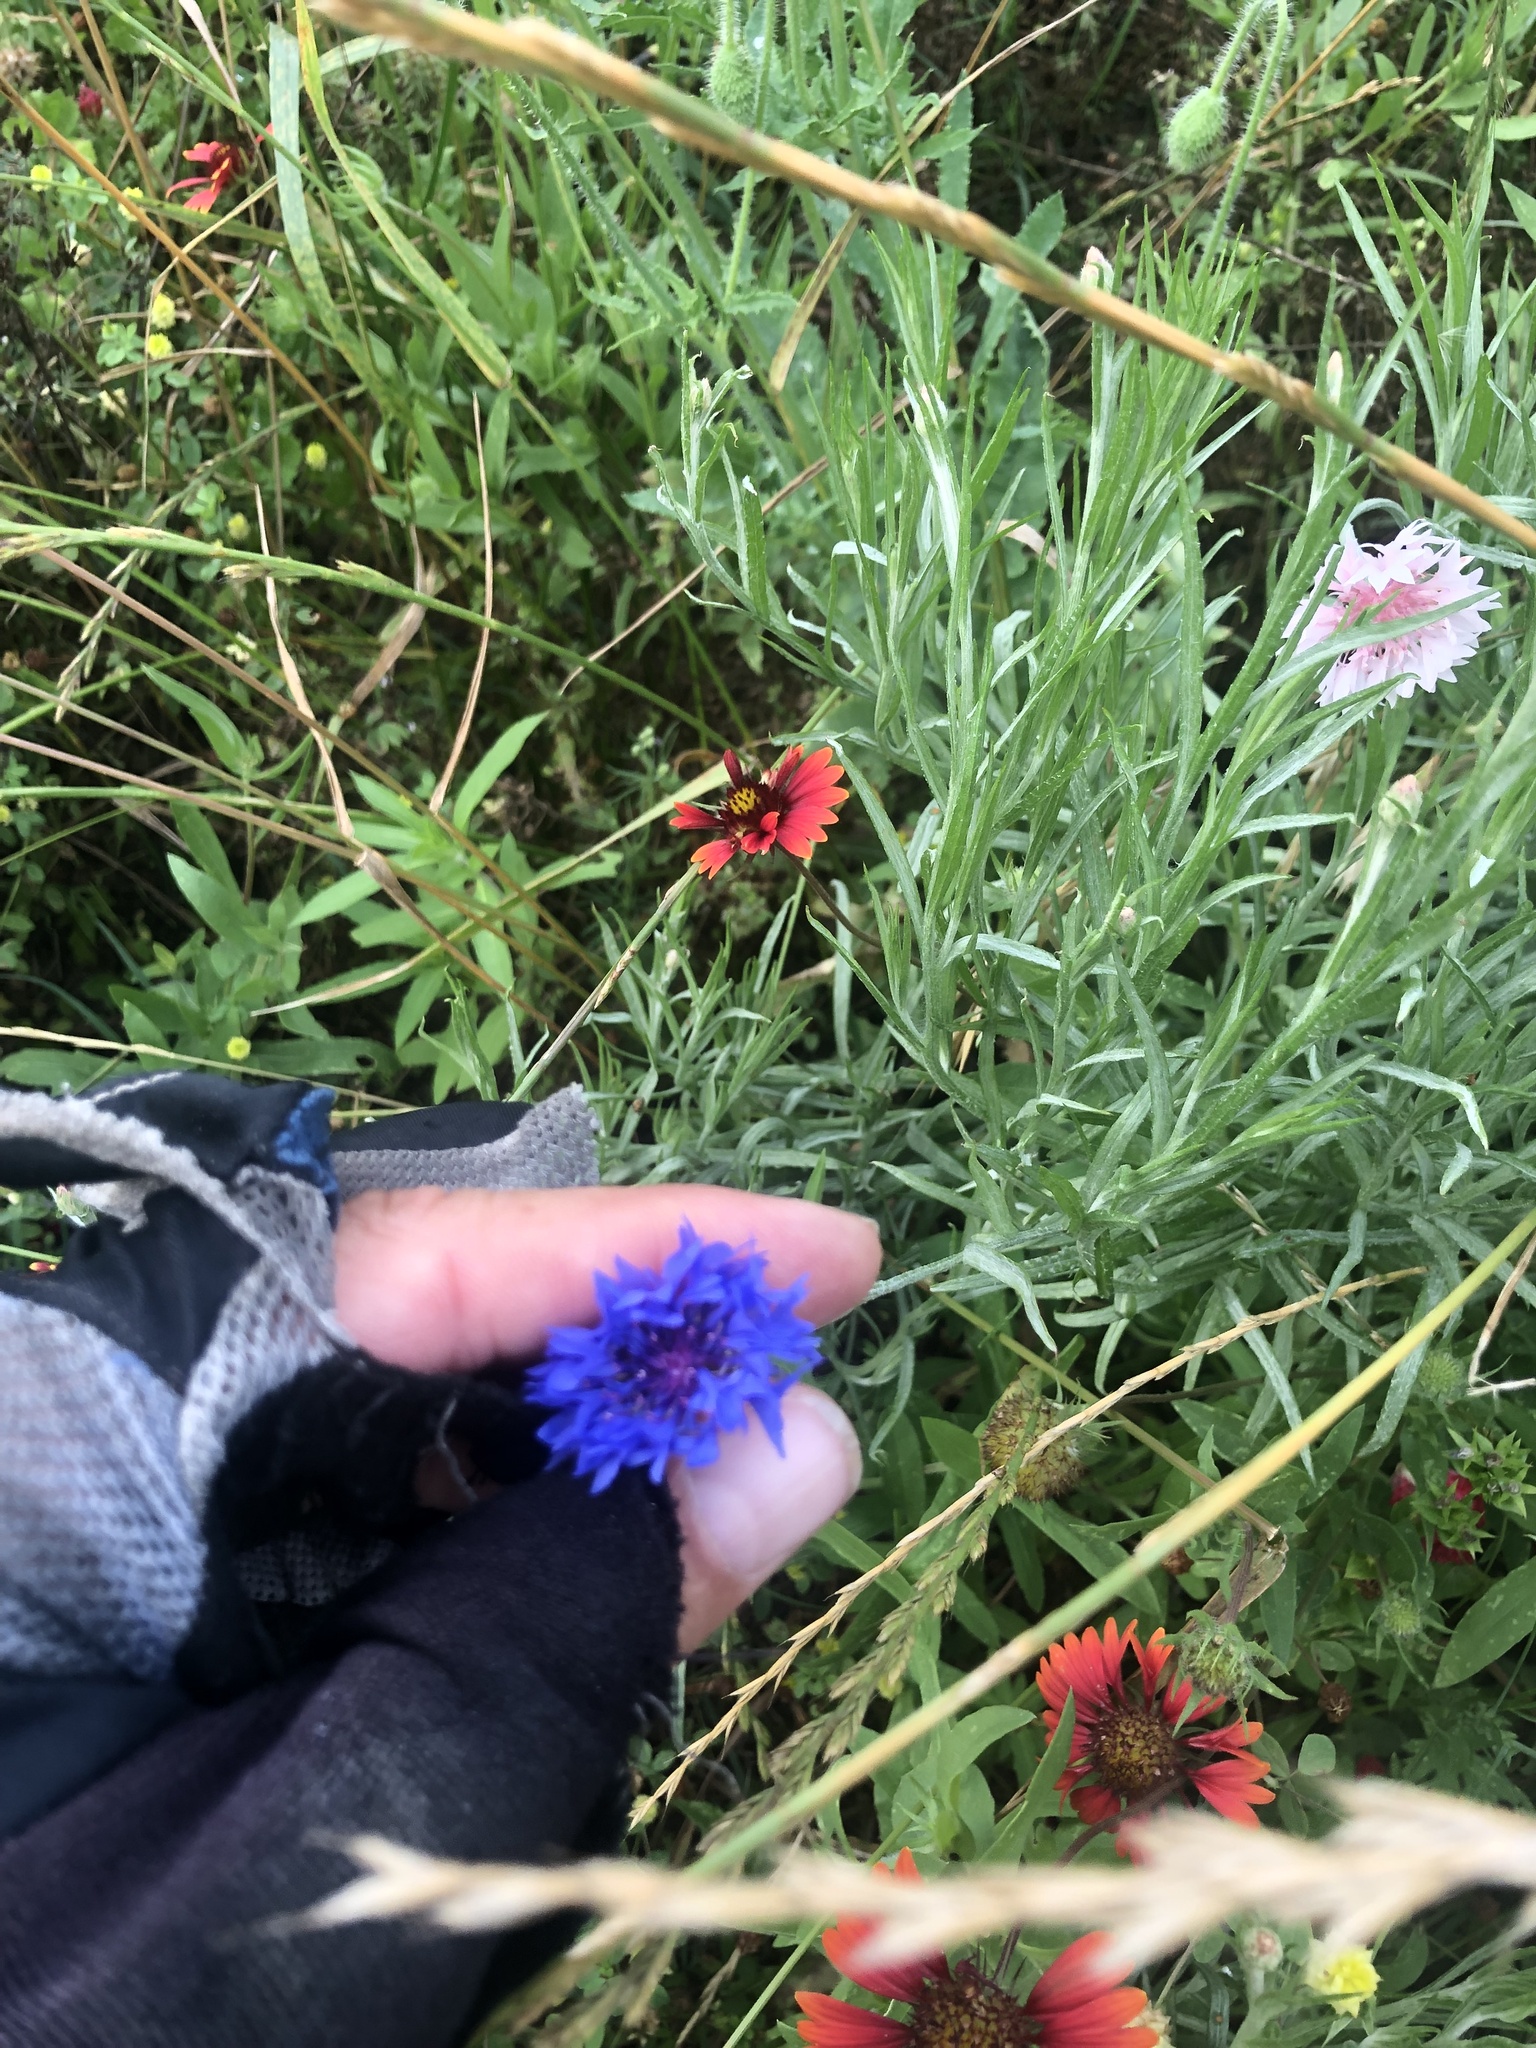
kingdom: Plantae
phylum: Tracheophyta
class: Magnoliopsida
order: Asterales
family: Asteraceae
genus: Centaurea
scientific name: Centaurea cyanus
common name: Cornflower
